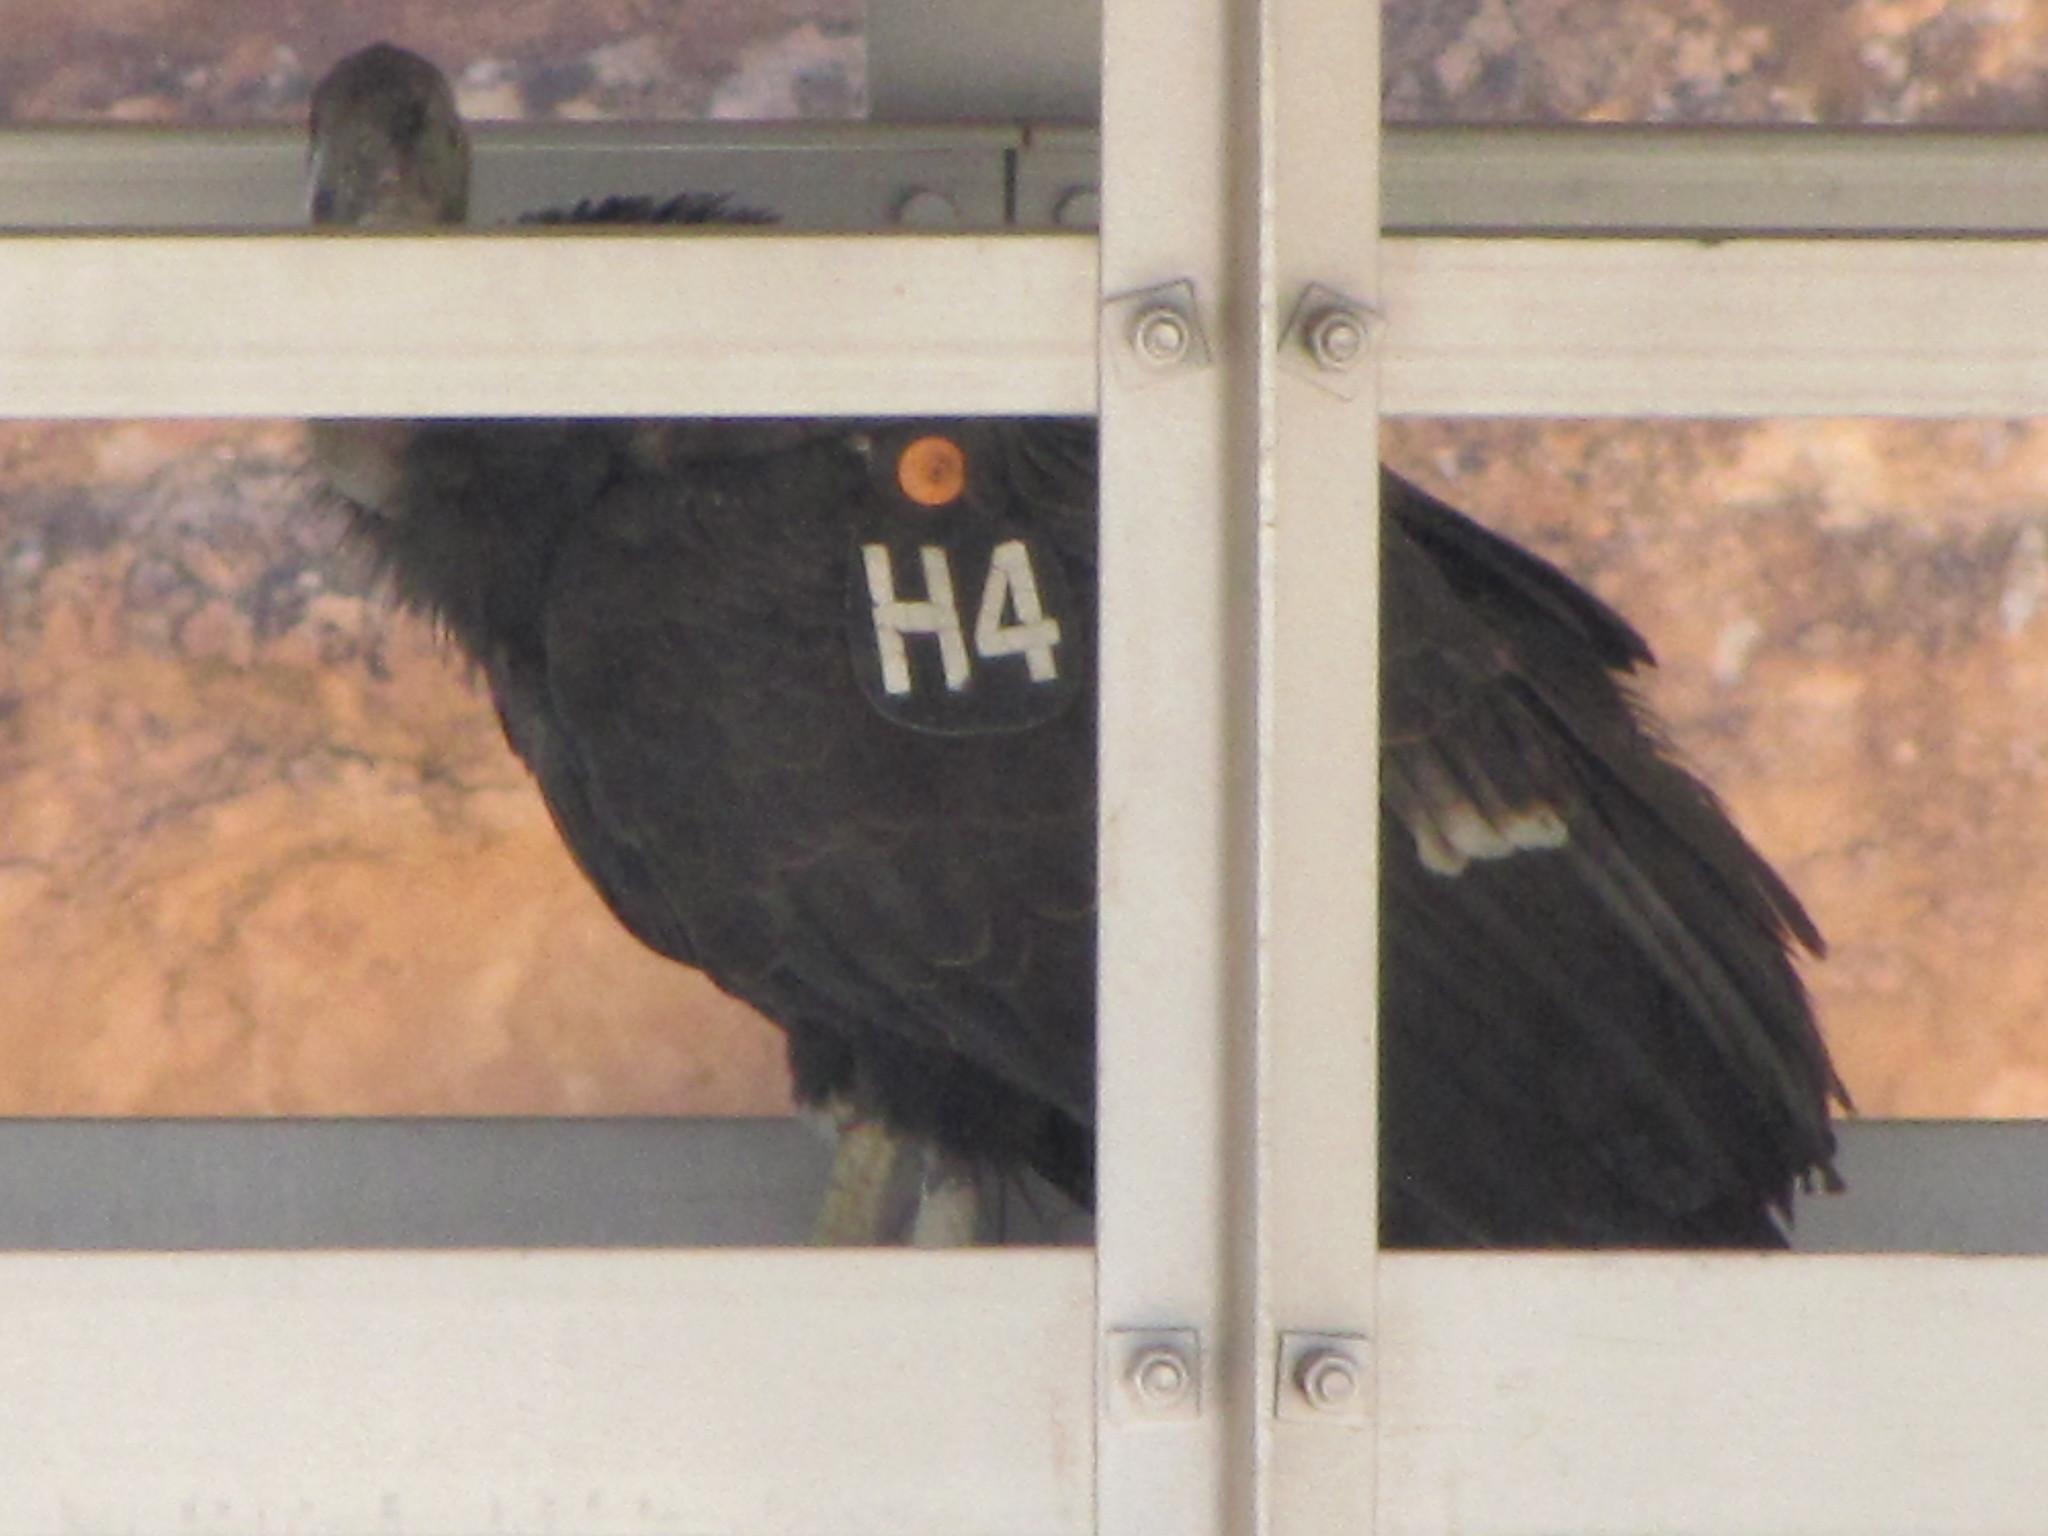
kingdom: Animalia
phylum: Chordata
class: Aves
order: Accipitriformes
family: Cathartidae
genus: Gymnogyps
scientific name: Gymnogyps californianus
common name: California condor
